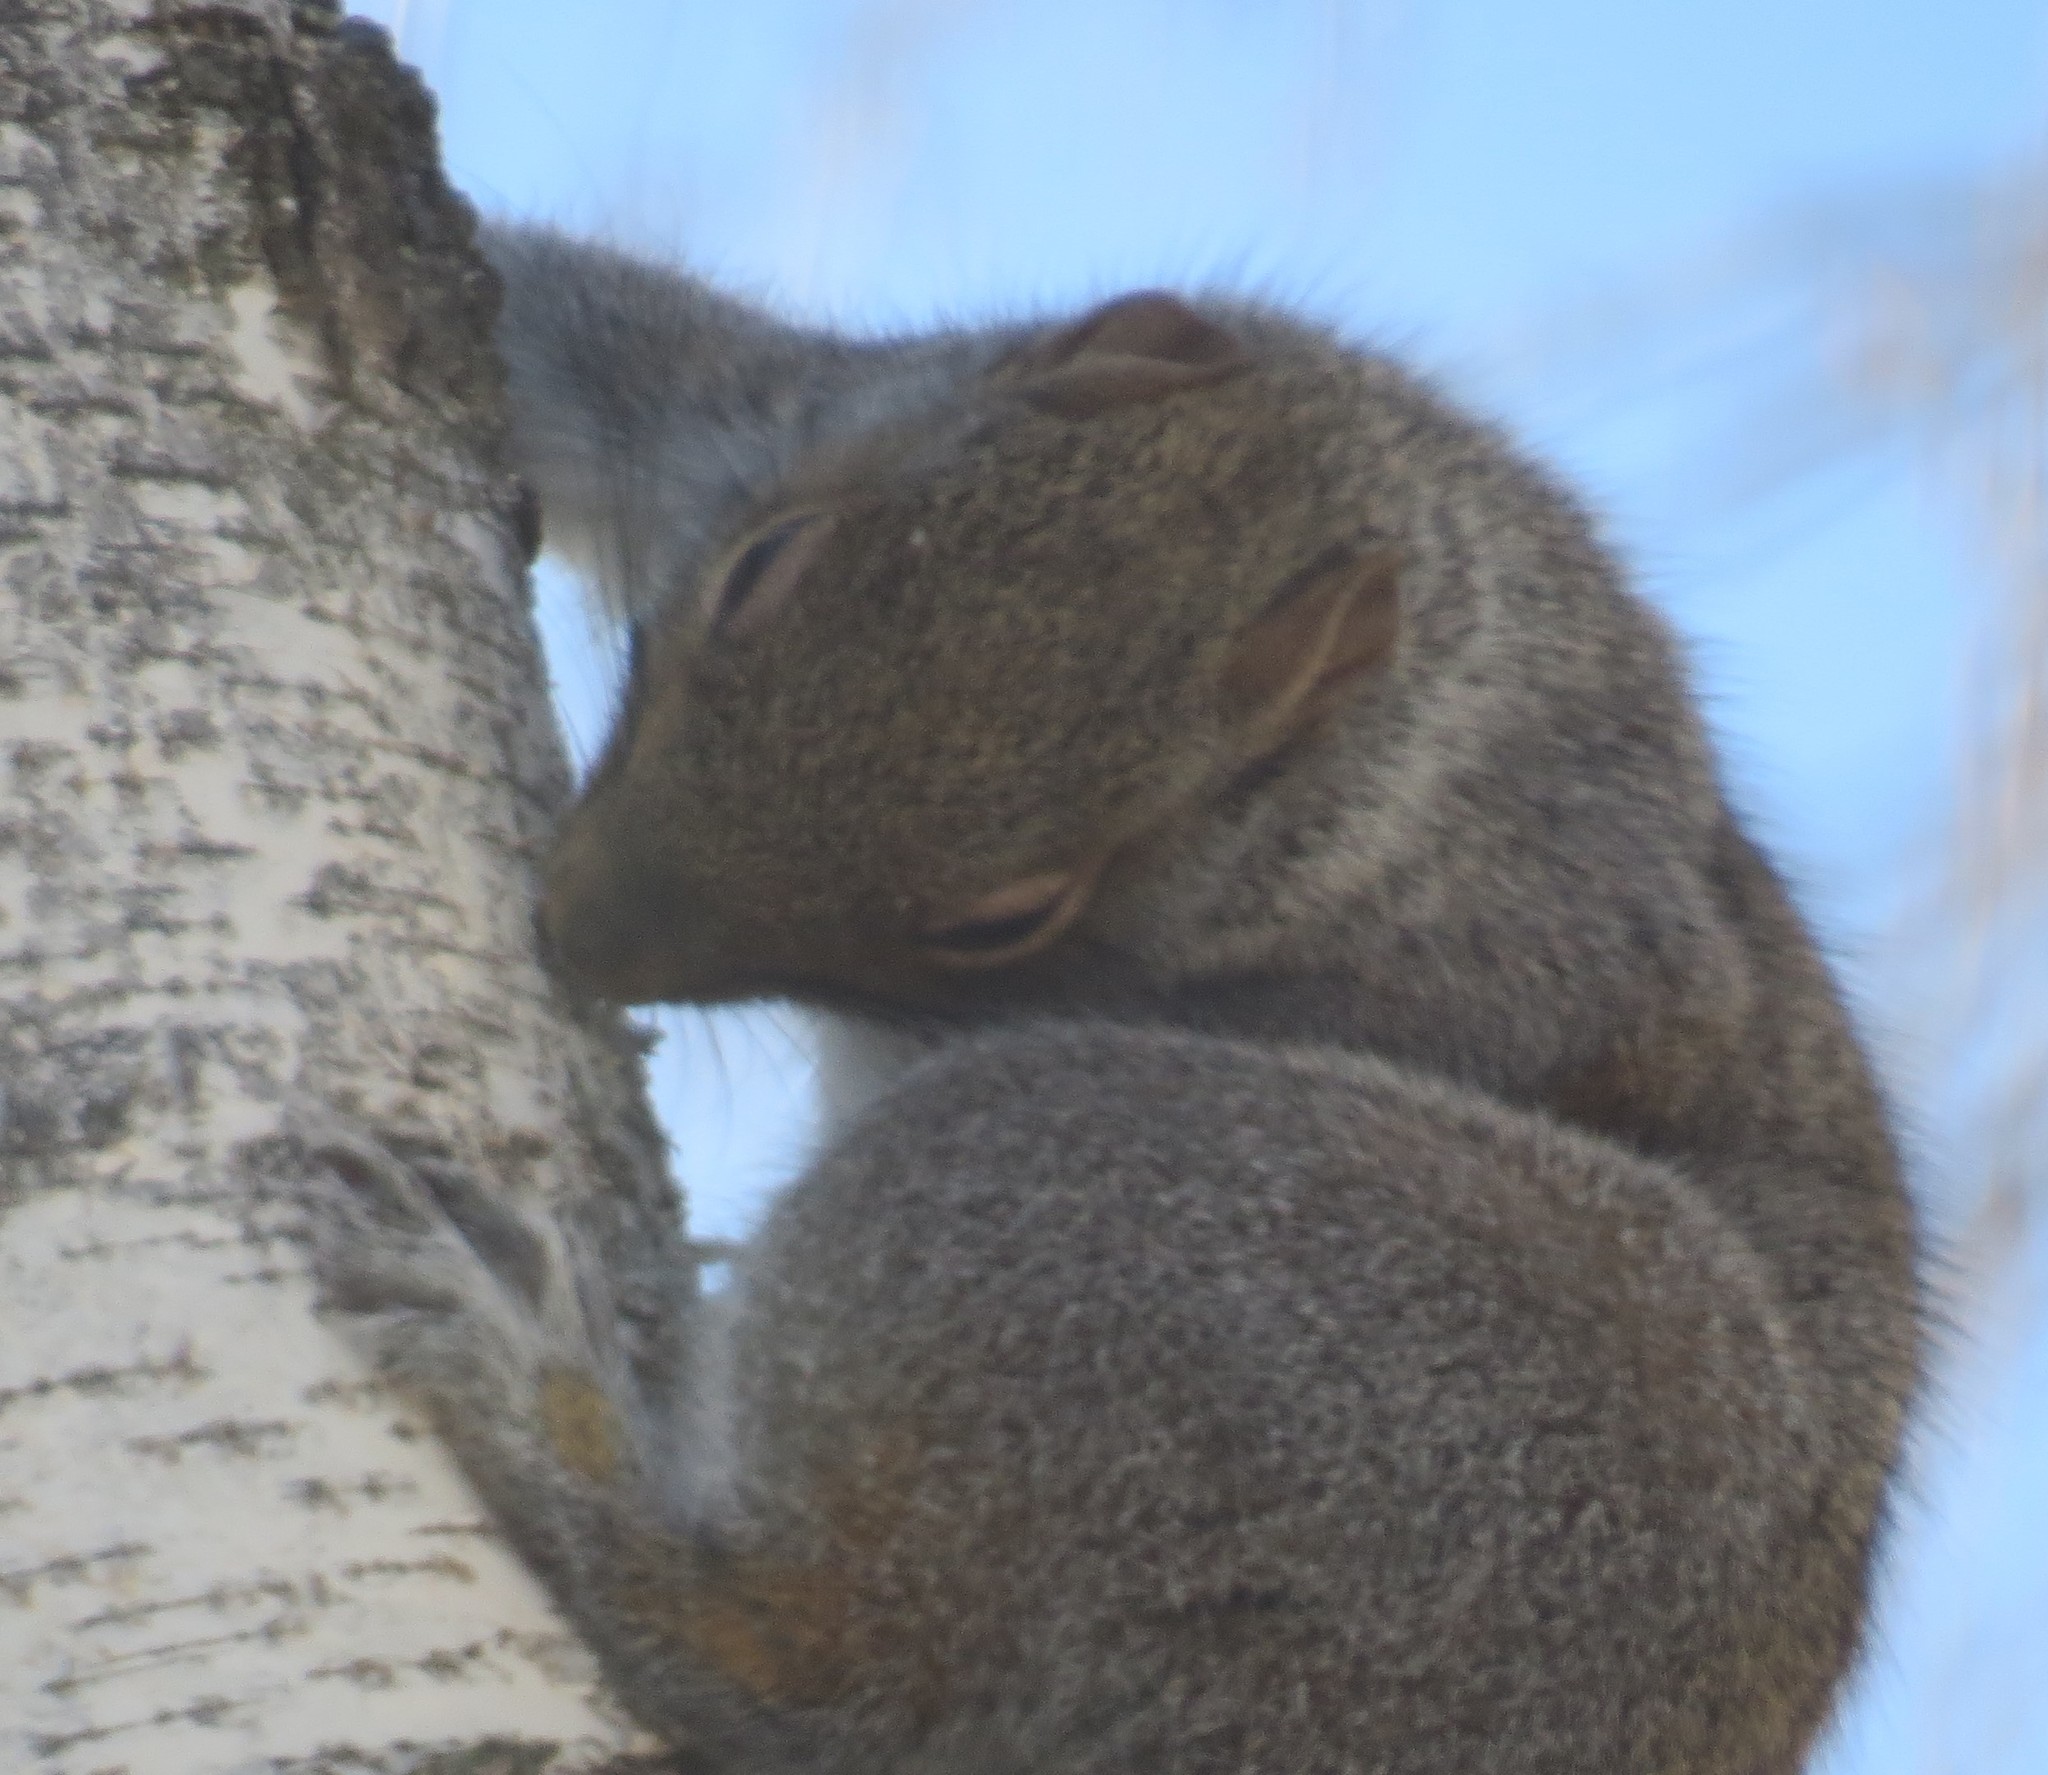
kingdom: Animalia
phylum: Chordata
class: Mammalia
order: Rodentia
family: Sciuridae
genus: Sciurus
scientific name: Sciurus carolinensis
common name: Eastern gray squirrel
